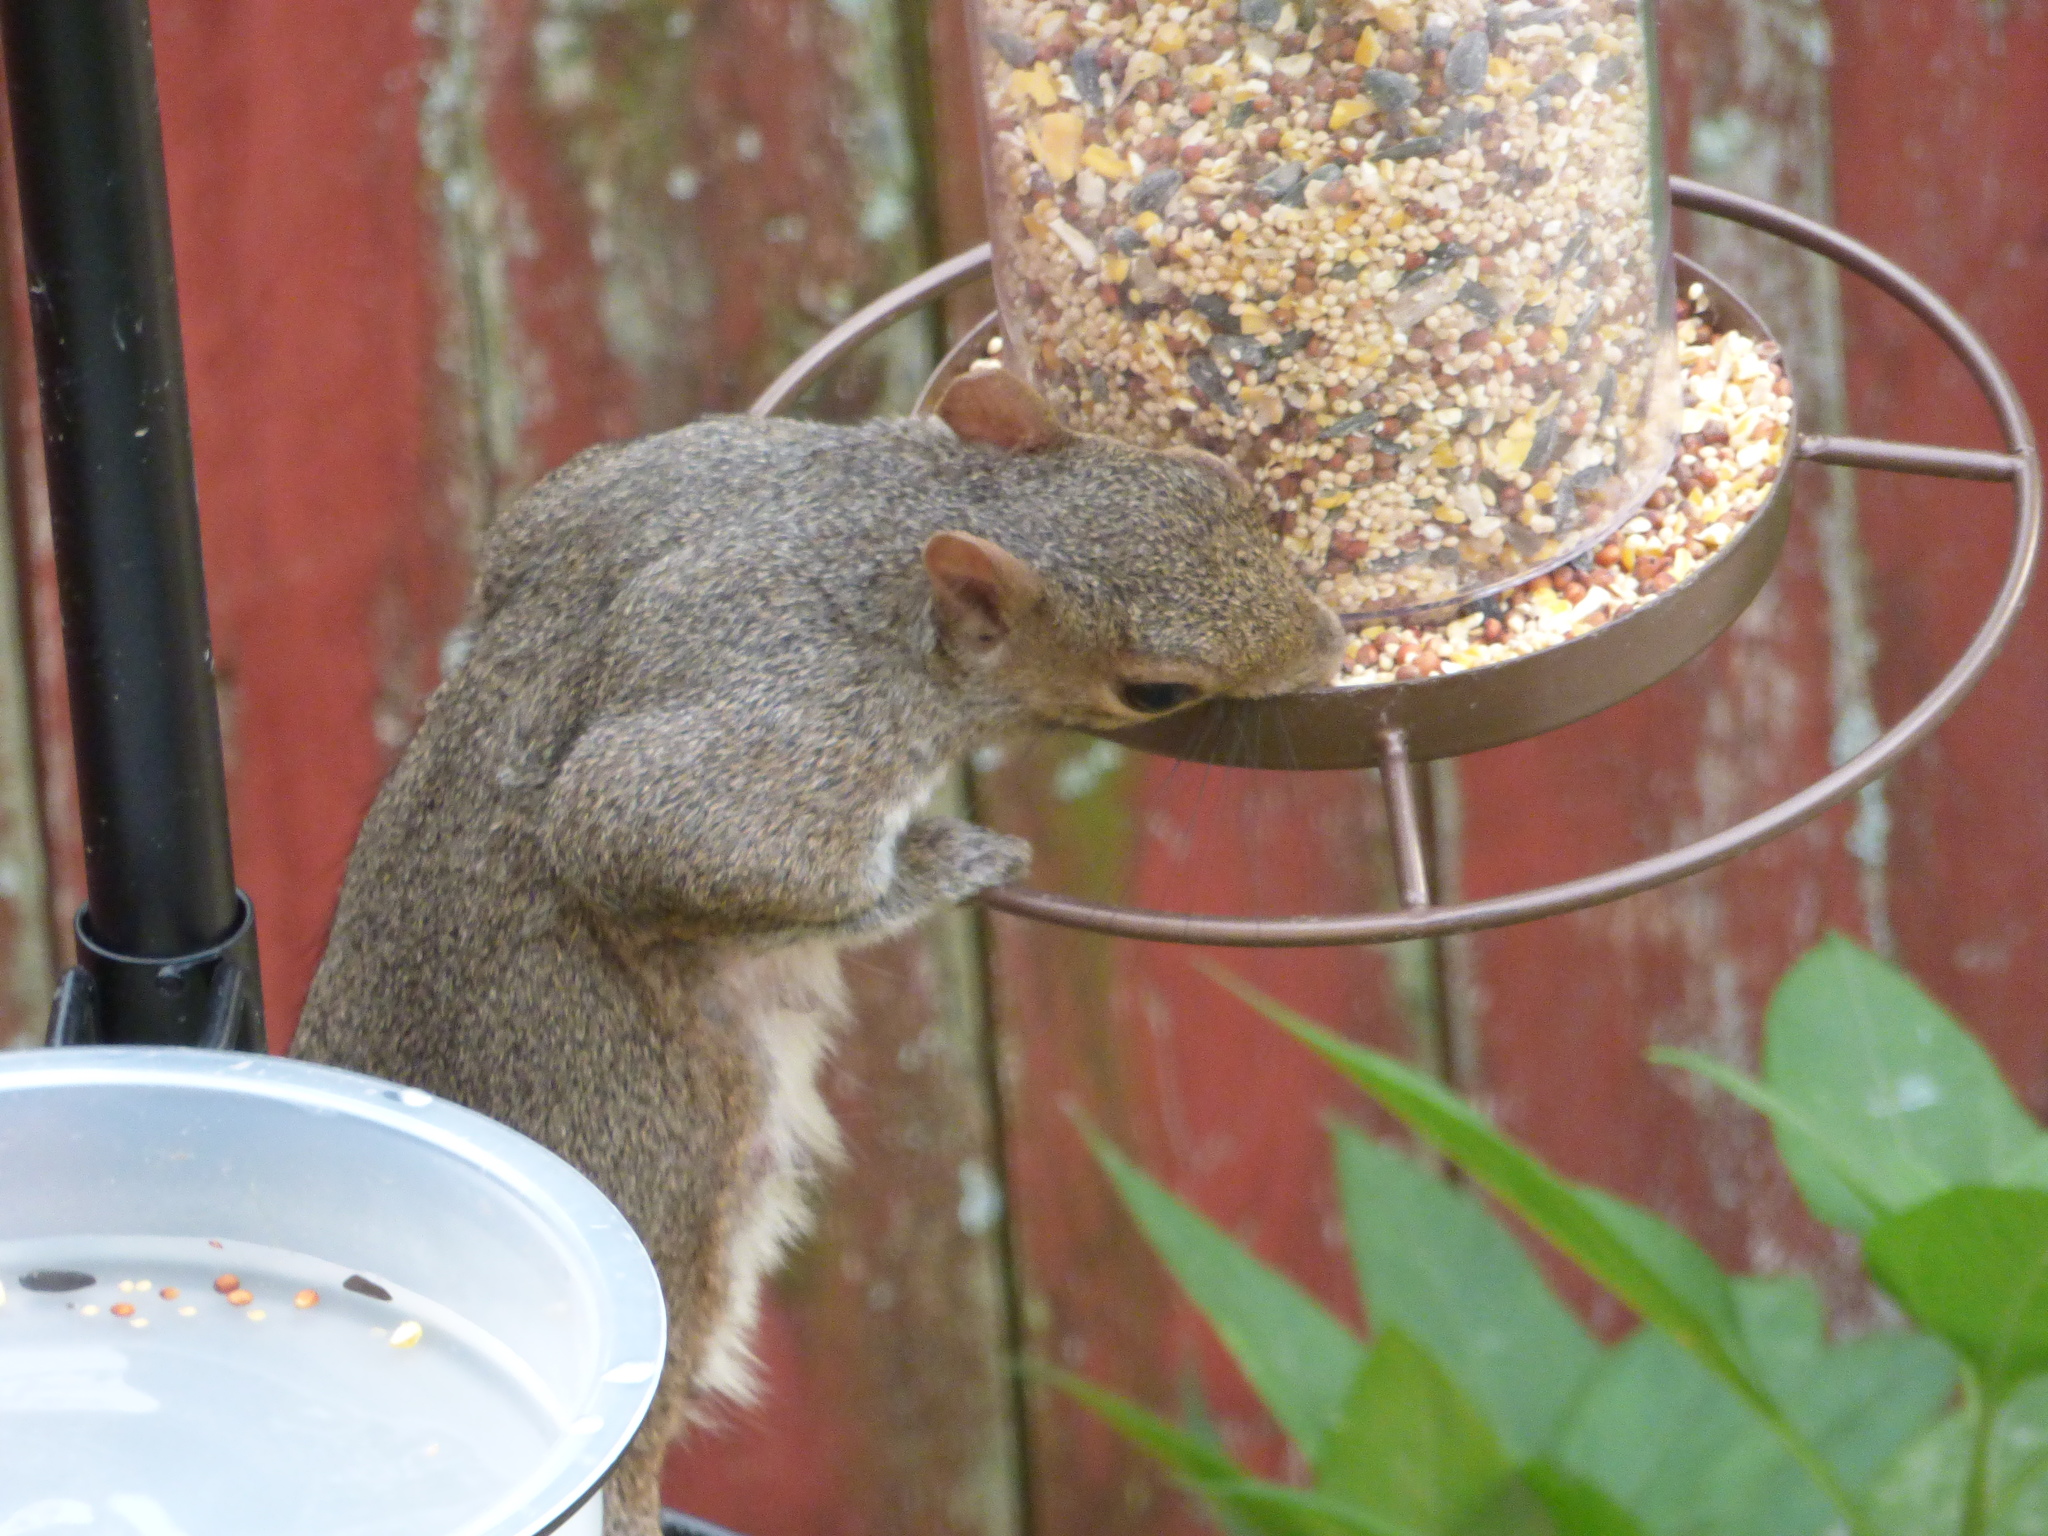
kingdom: Animalia
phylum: Chordata
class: Mammalia
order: Rodentia
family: Sciuridae
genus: Sciurus
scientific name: Sciurus carolinensis
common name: Eastern gray squirrel
